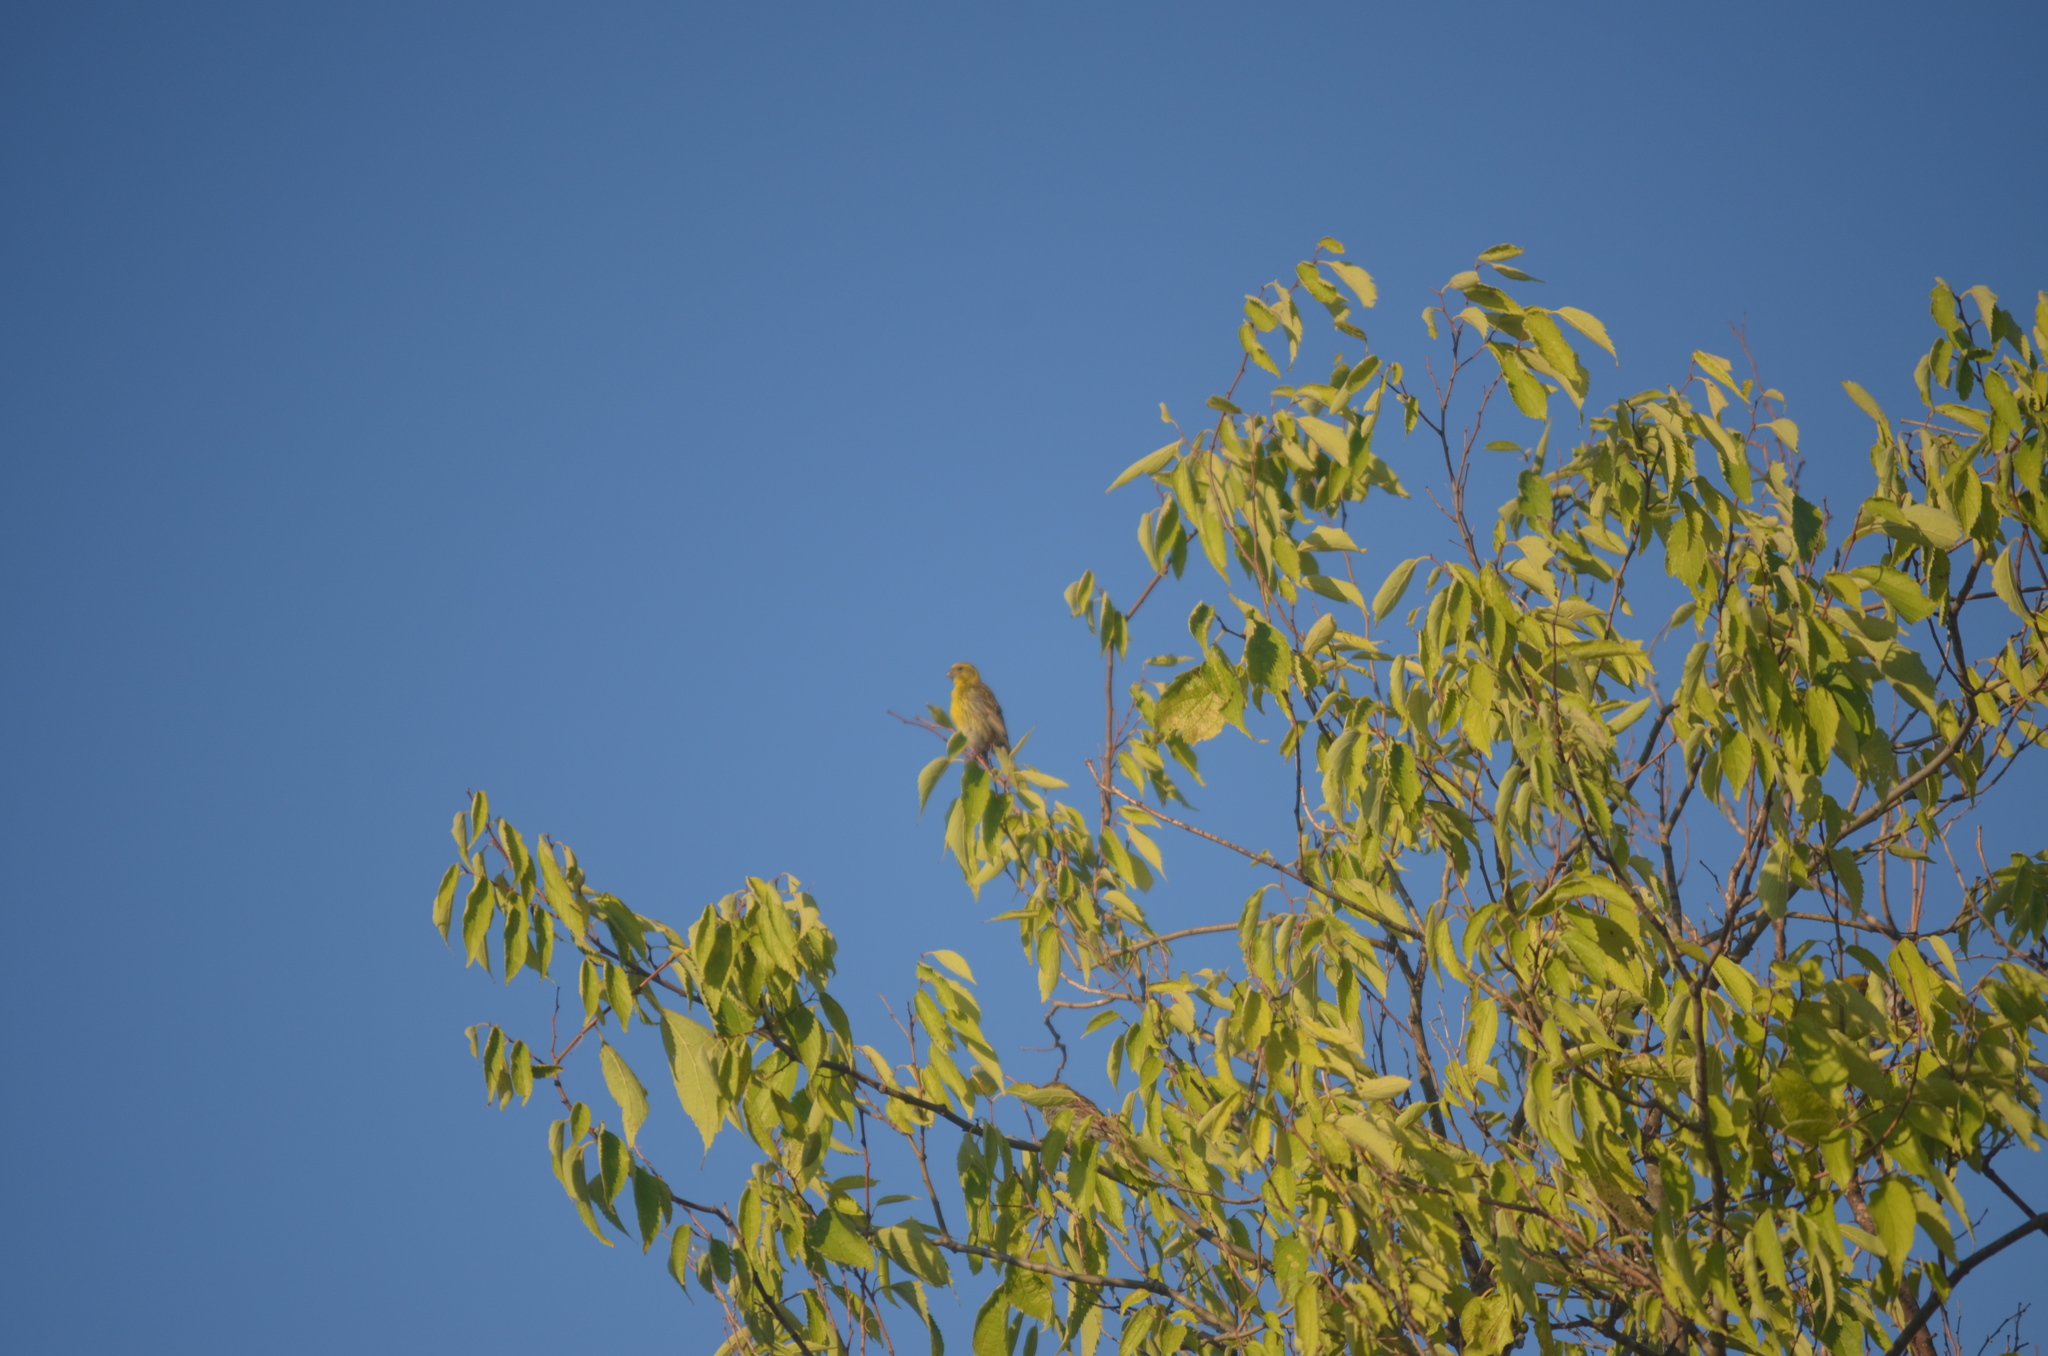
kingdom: Animalia
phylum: Chordata
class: Aves
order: Passeriformes
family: Fringillidae
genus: Serinus
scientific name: Serinus serinus
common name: European serin
